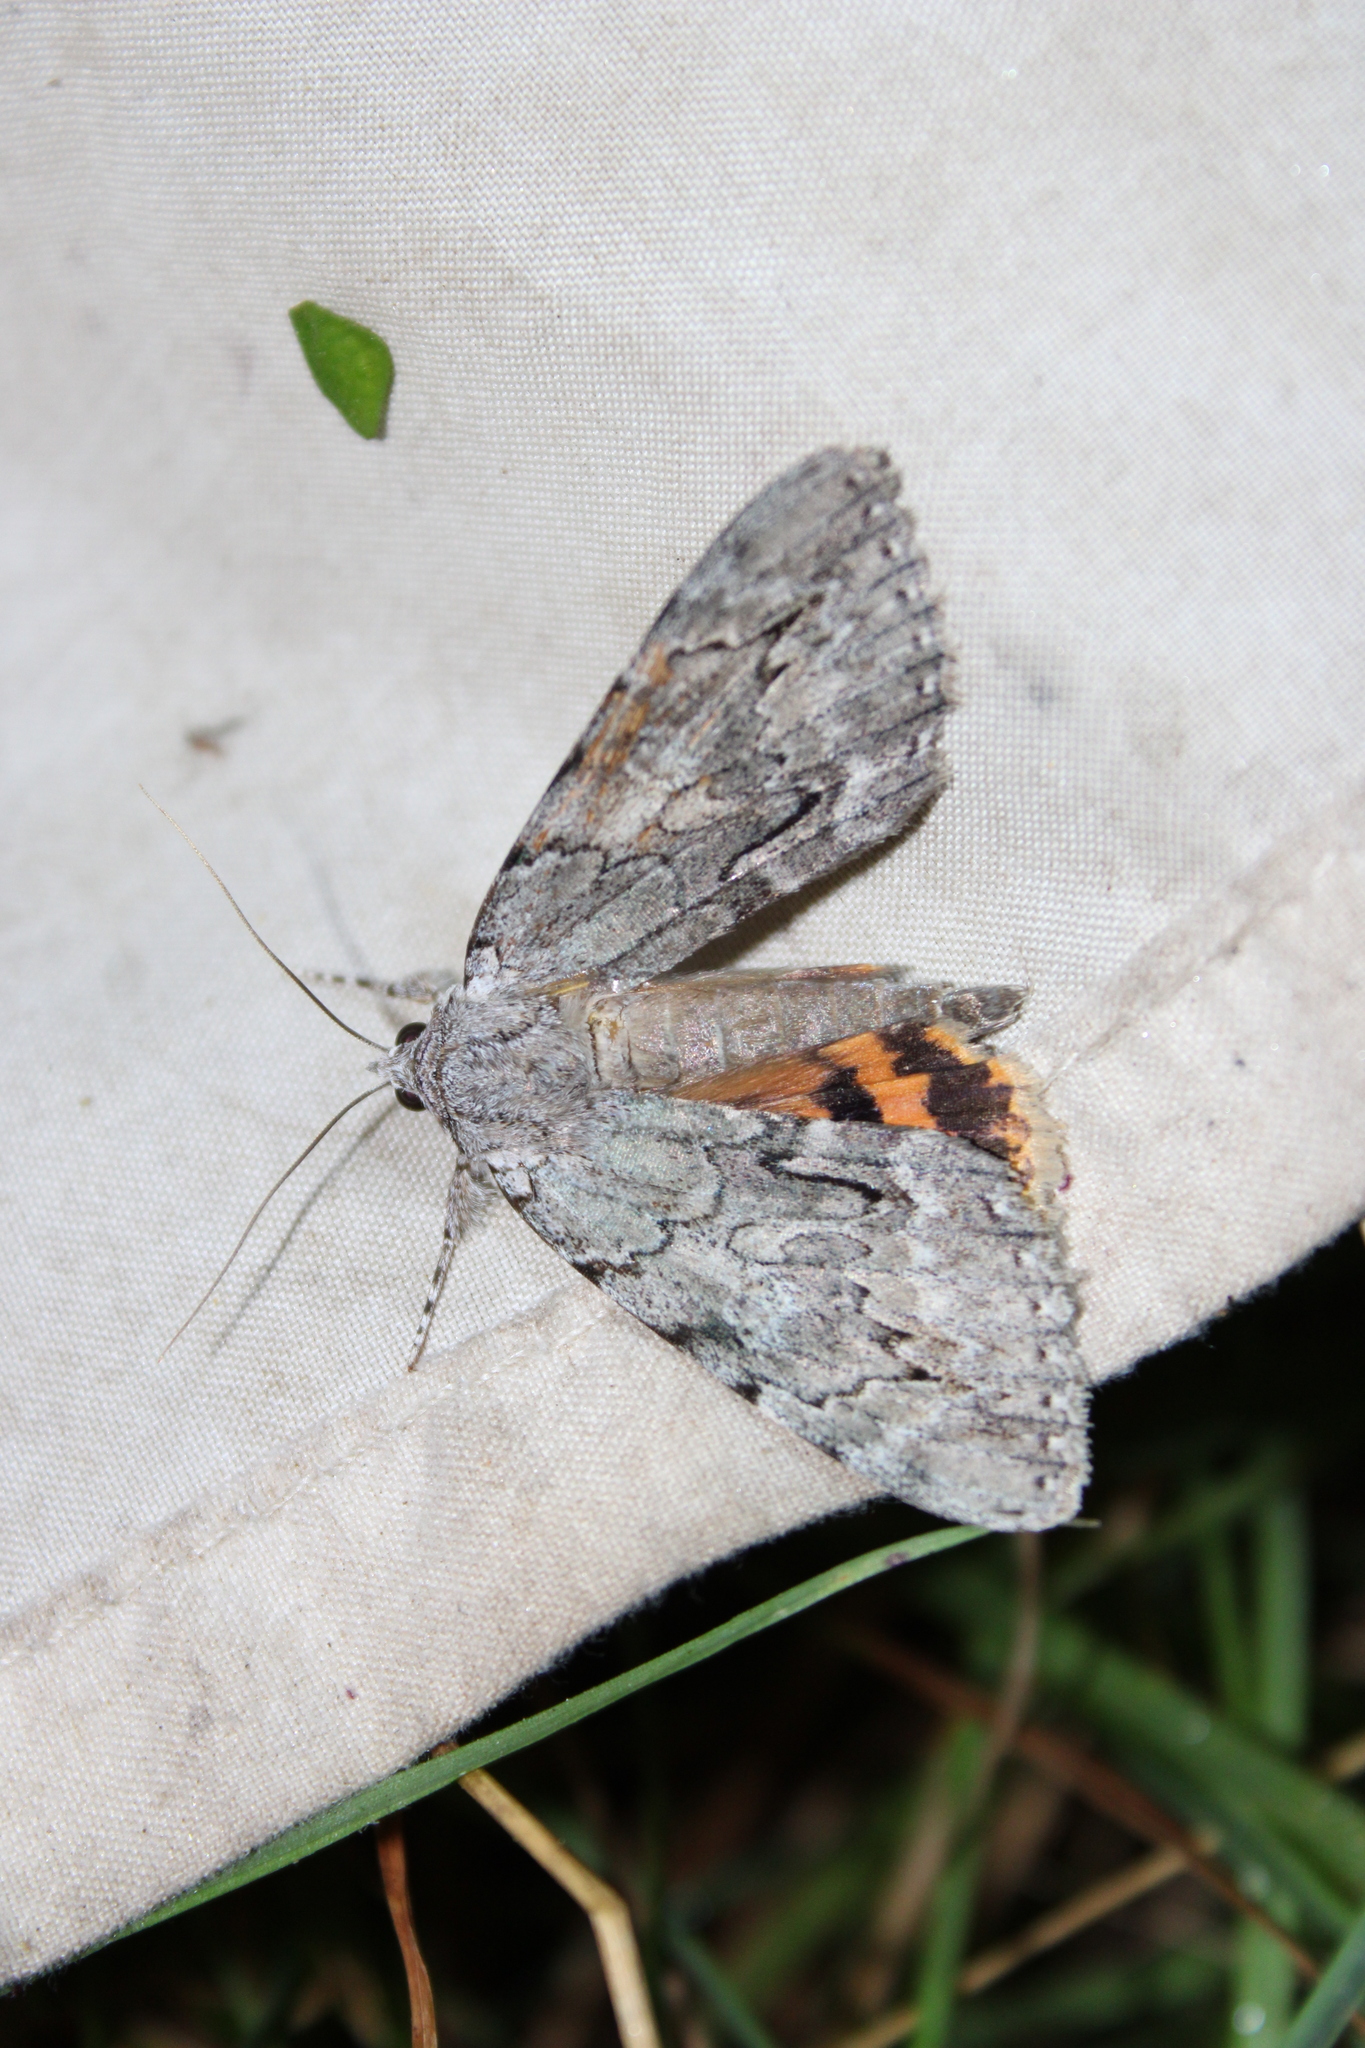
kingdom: Animalia
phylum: Arthropoda
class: Insecta
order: Lepidoptera
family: Erebidae
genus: Catocala
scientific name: Catocala habilis
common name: Habilis underwing
